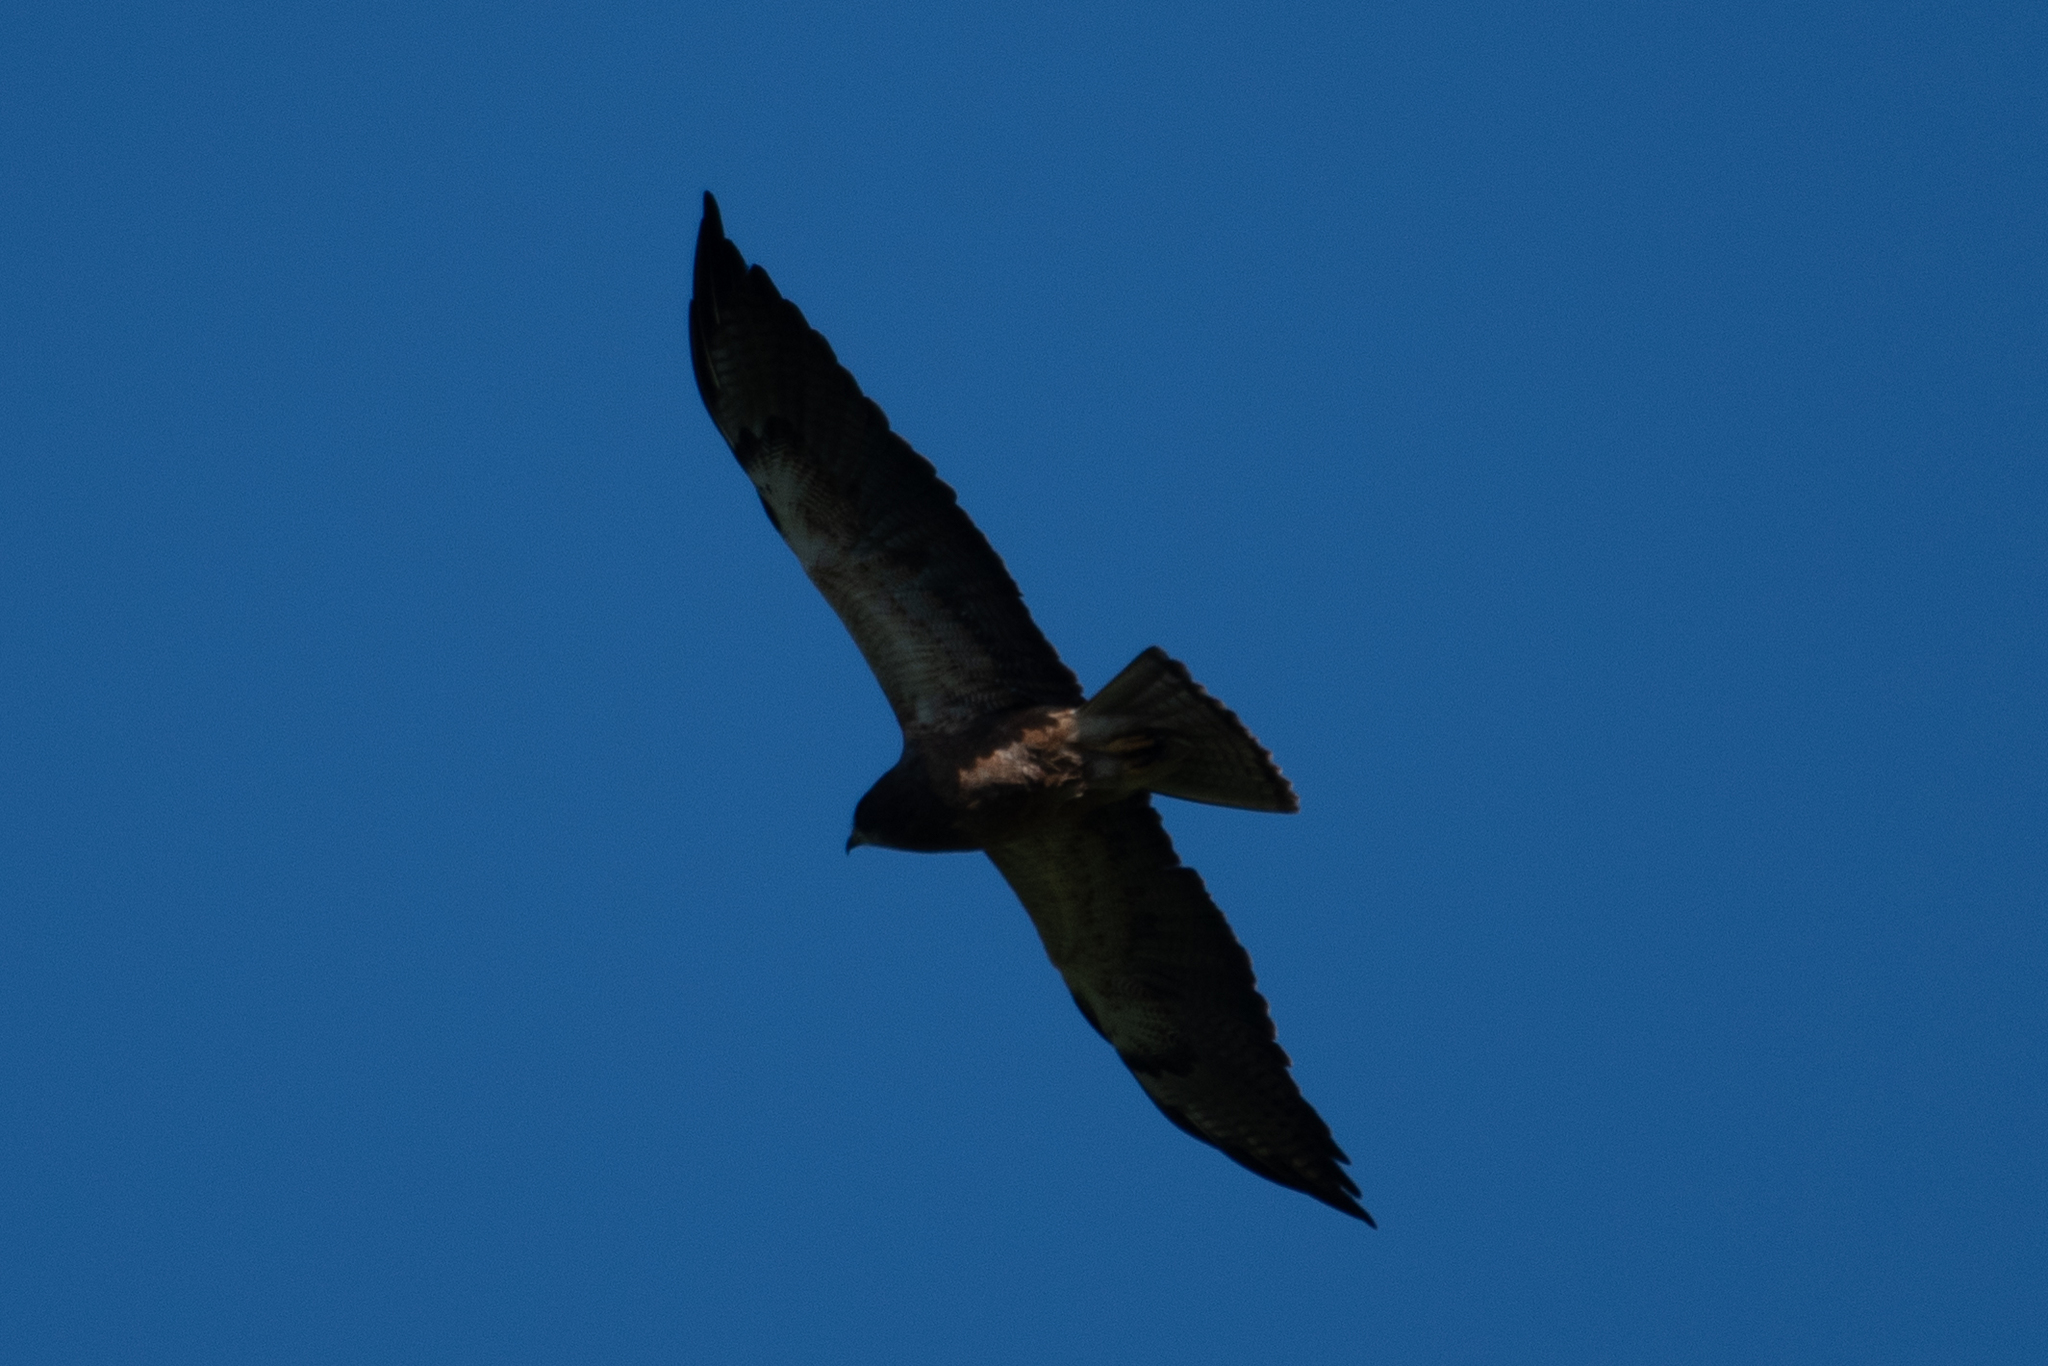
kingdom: Animalia
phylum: Chordata
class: Aves
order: Accipitriformes
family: Accipitridae
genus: Buteo
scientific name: Buteo swainsoni
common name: Swainson's hawk
